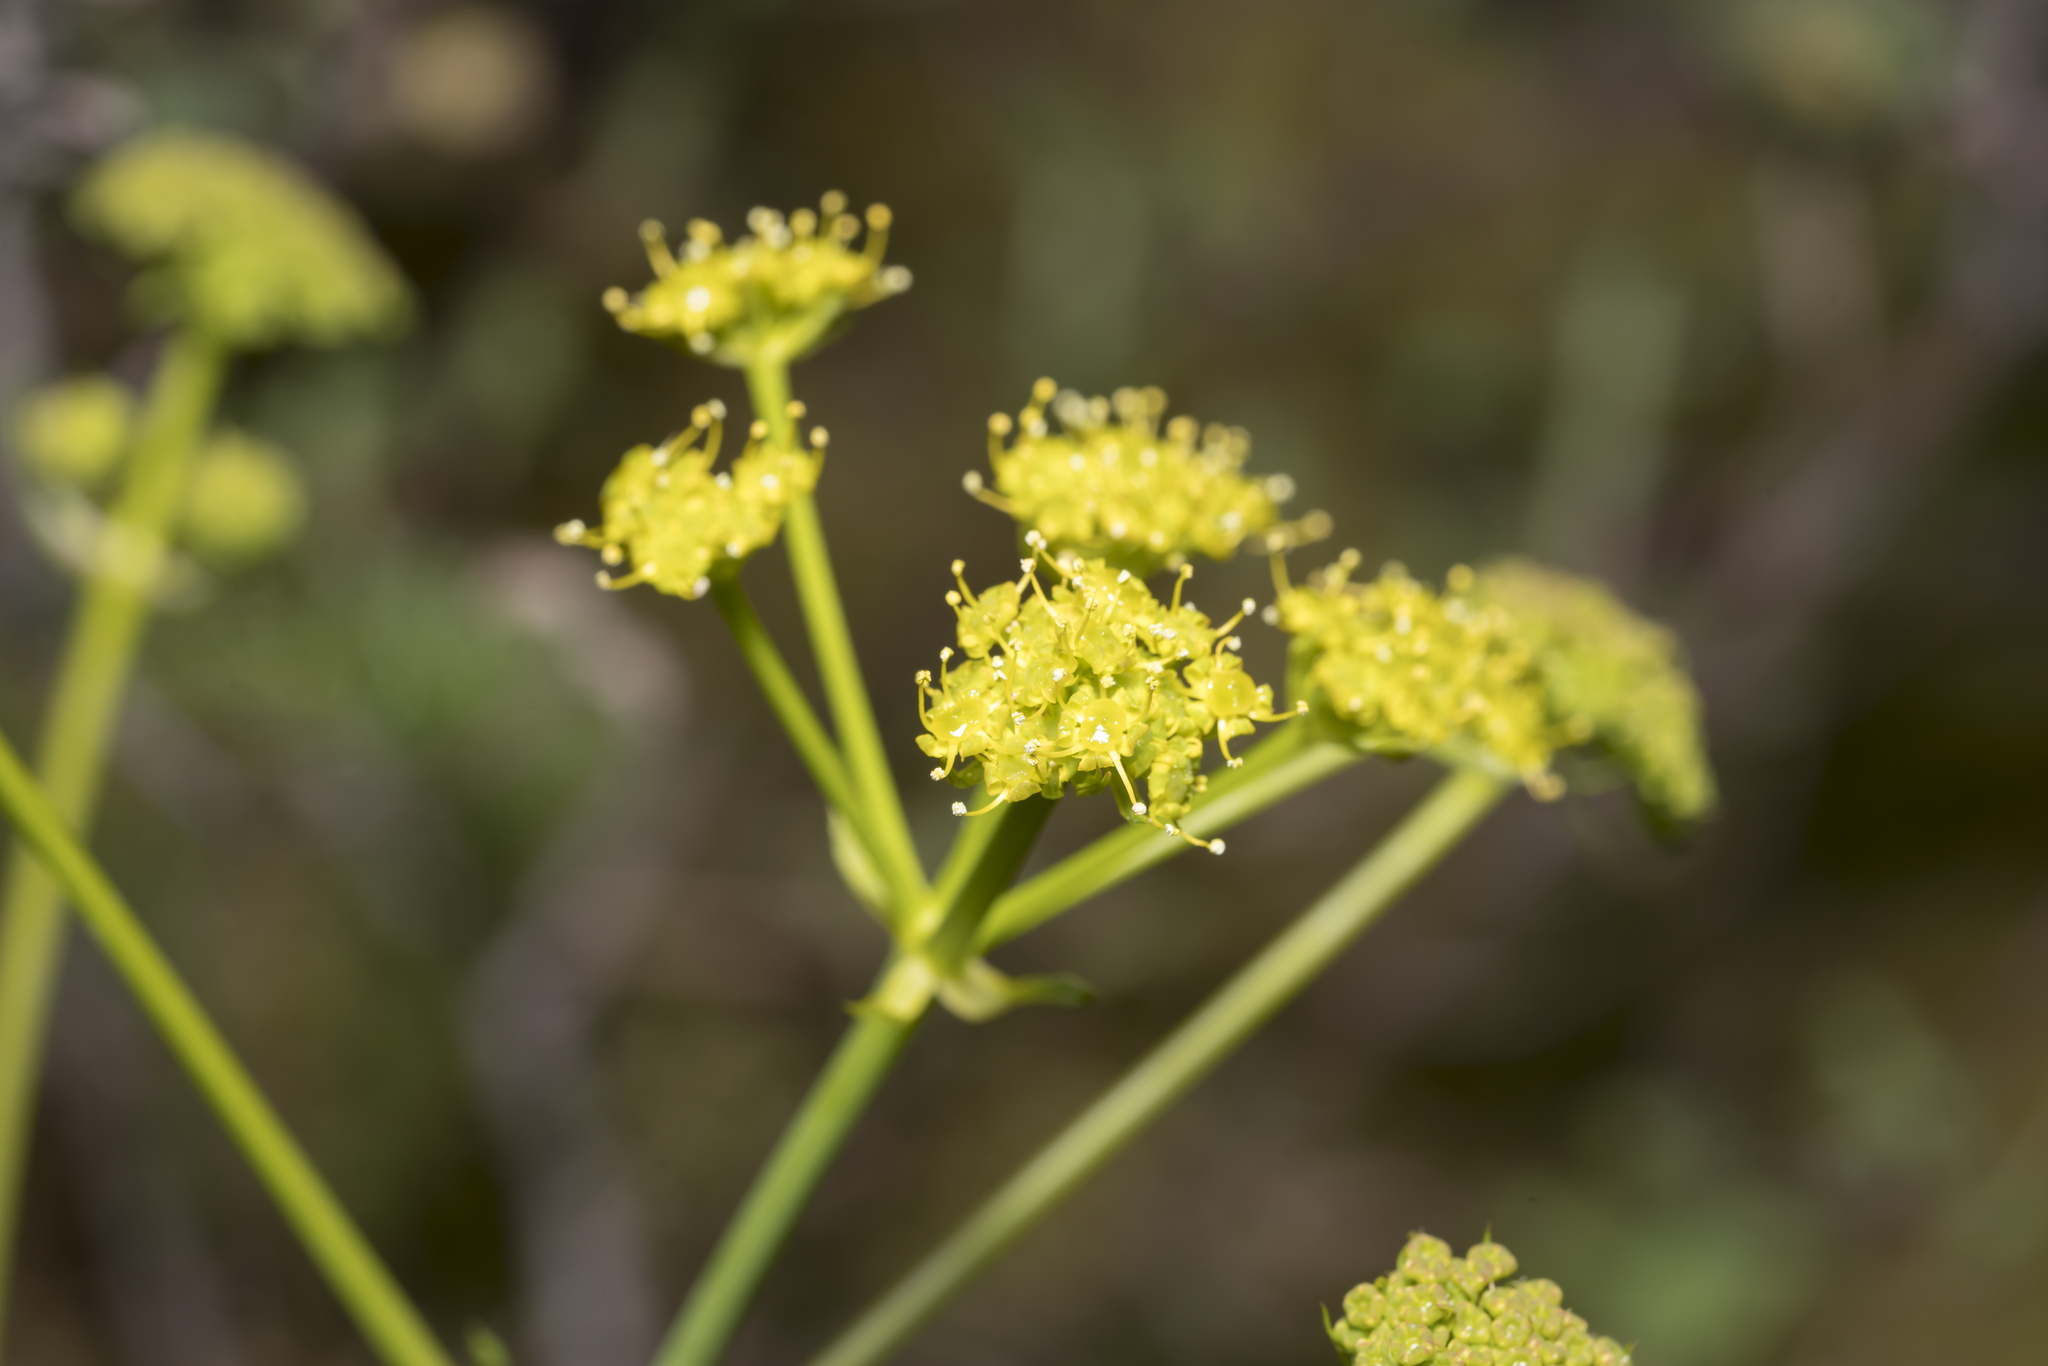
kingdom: Plantae
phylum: Tracheophyta
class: Magnoliopsida
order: Apiales
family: Apiaceae
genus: Ferulago
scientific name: Ferulago humilis
